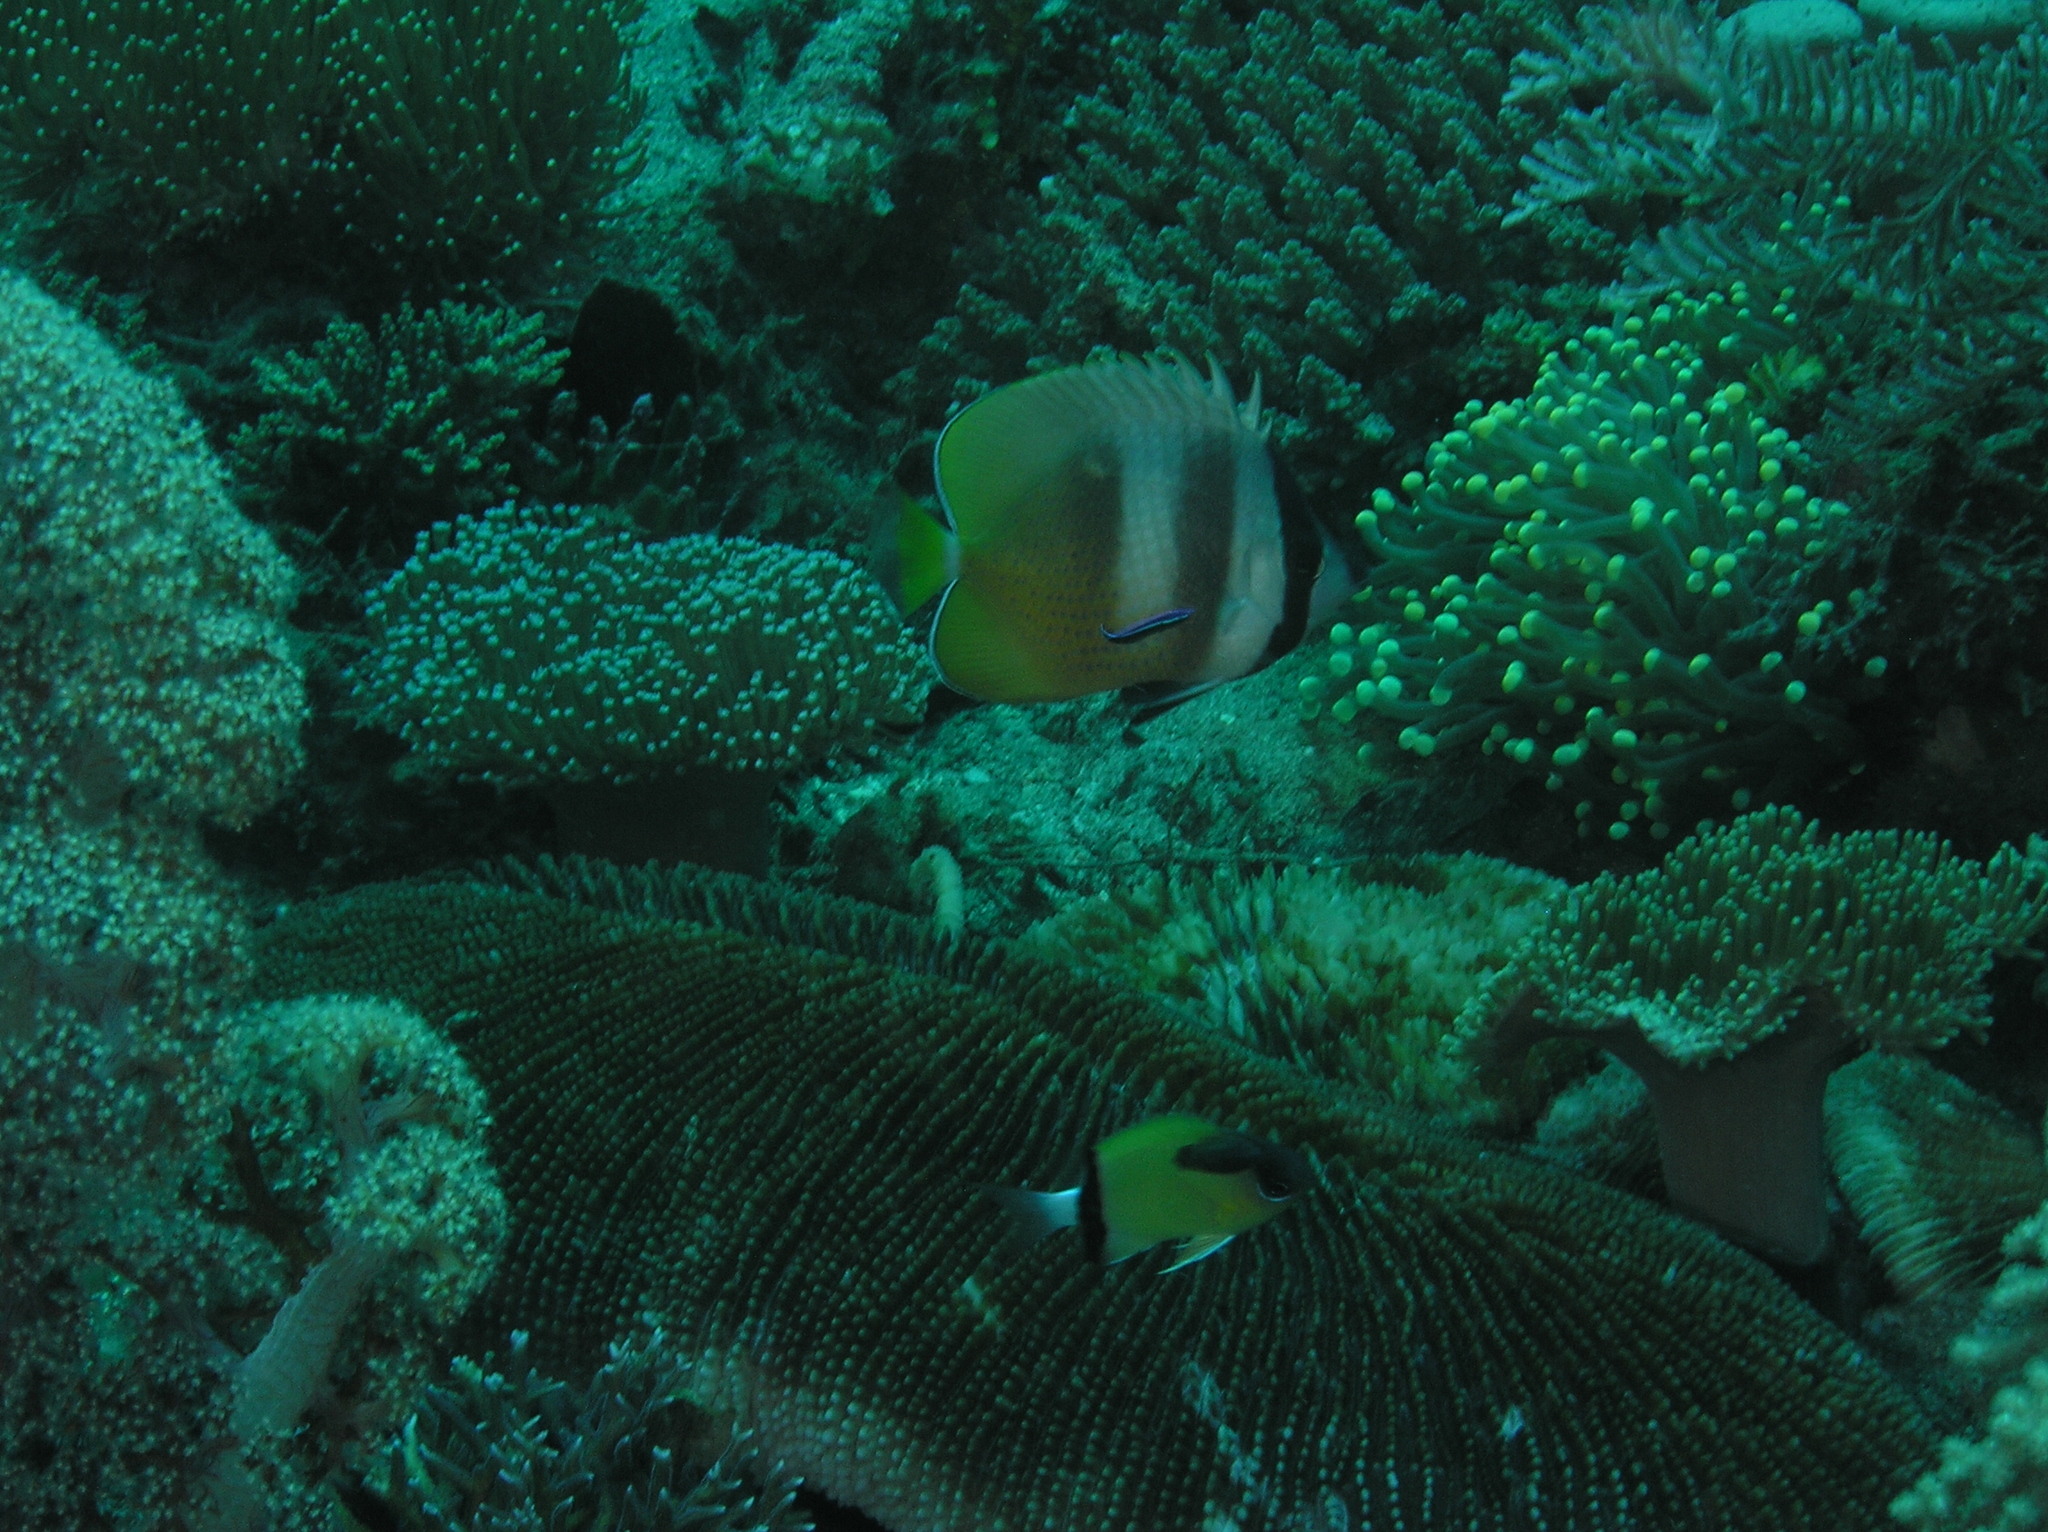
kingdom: Animalia
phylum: Chordata
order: Perciformes
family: Pomacentridae
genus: Chromis
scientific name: Chromis retrofasciata
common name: Black-bar chromis
